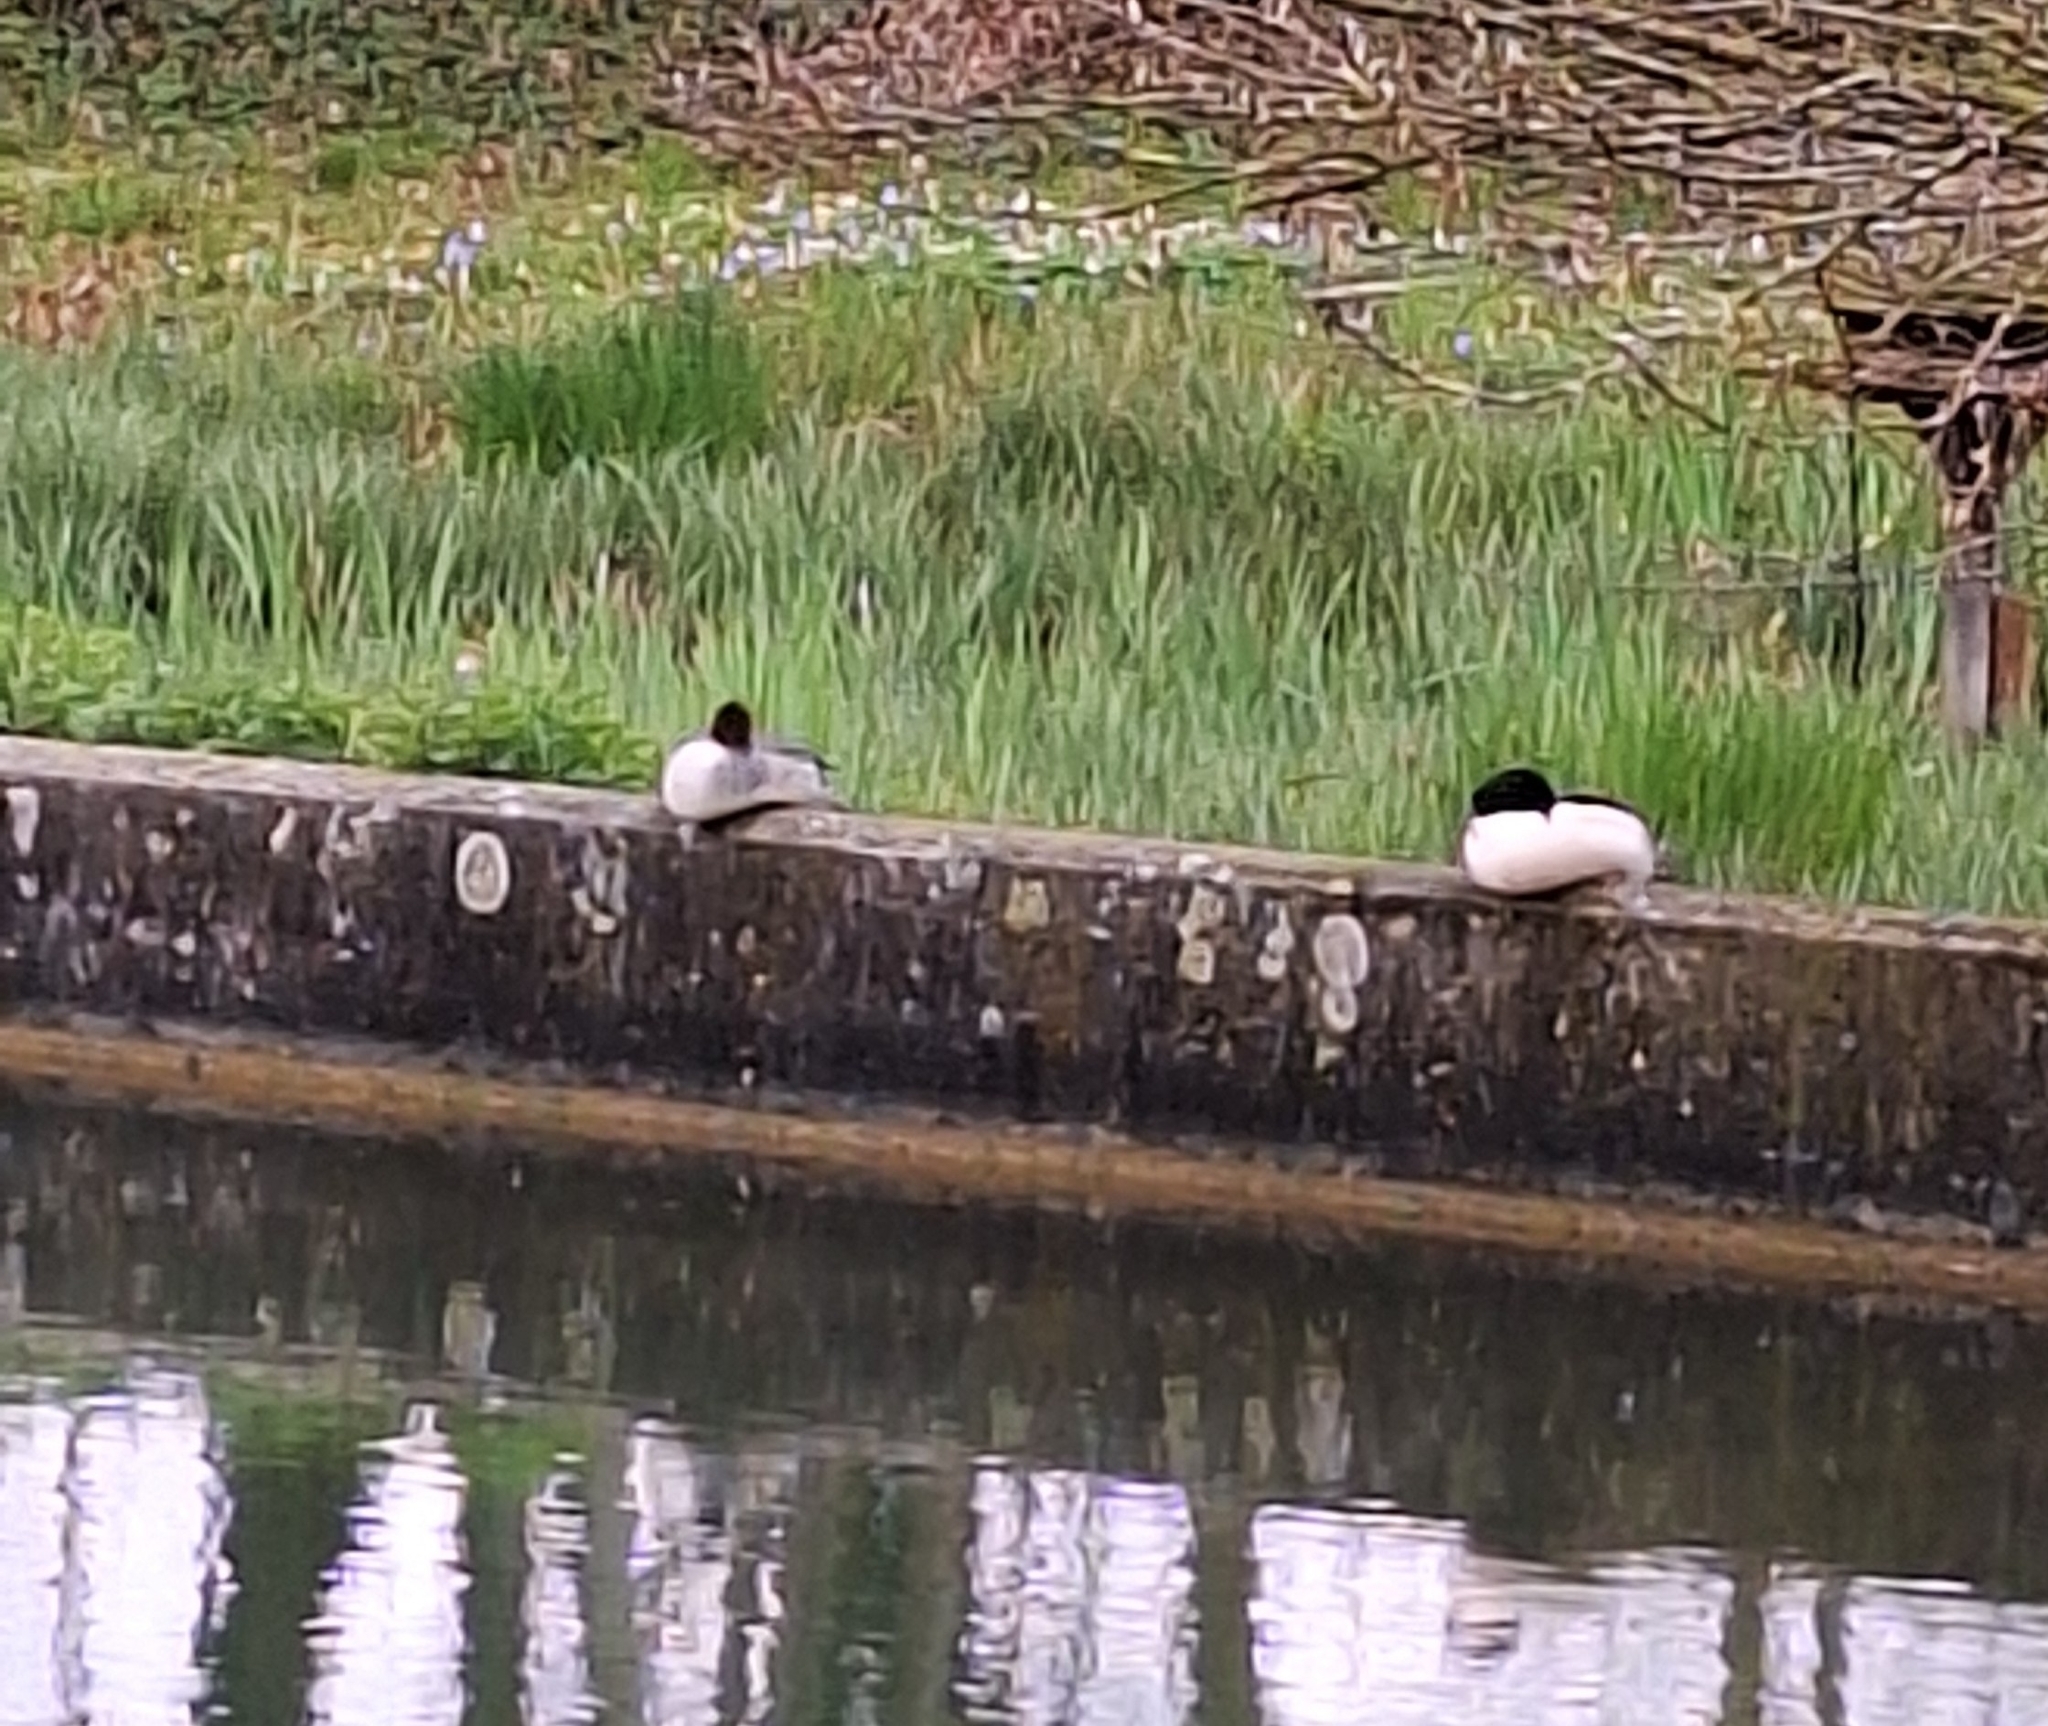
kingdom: Animalia
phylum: Chordata
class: Aves
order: Anseriformes
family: Anatidae
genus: Mergus
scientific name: Mergus merganser
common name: Common merganser
